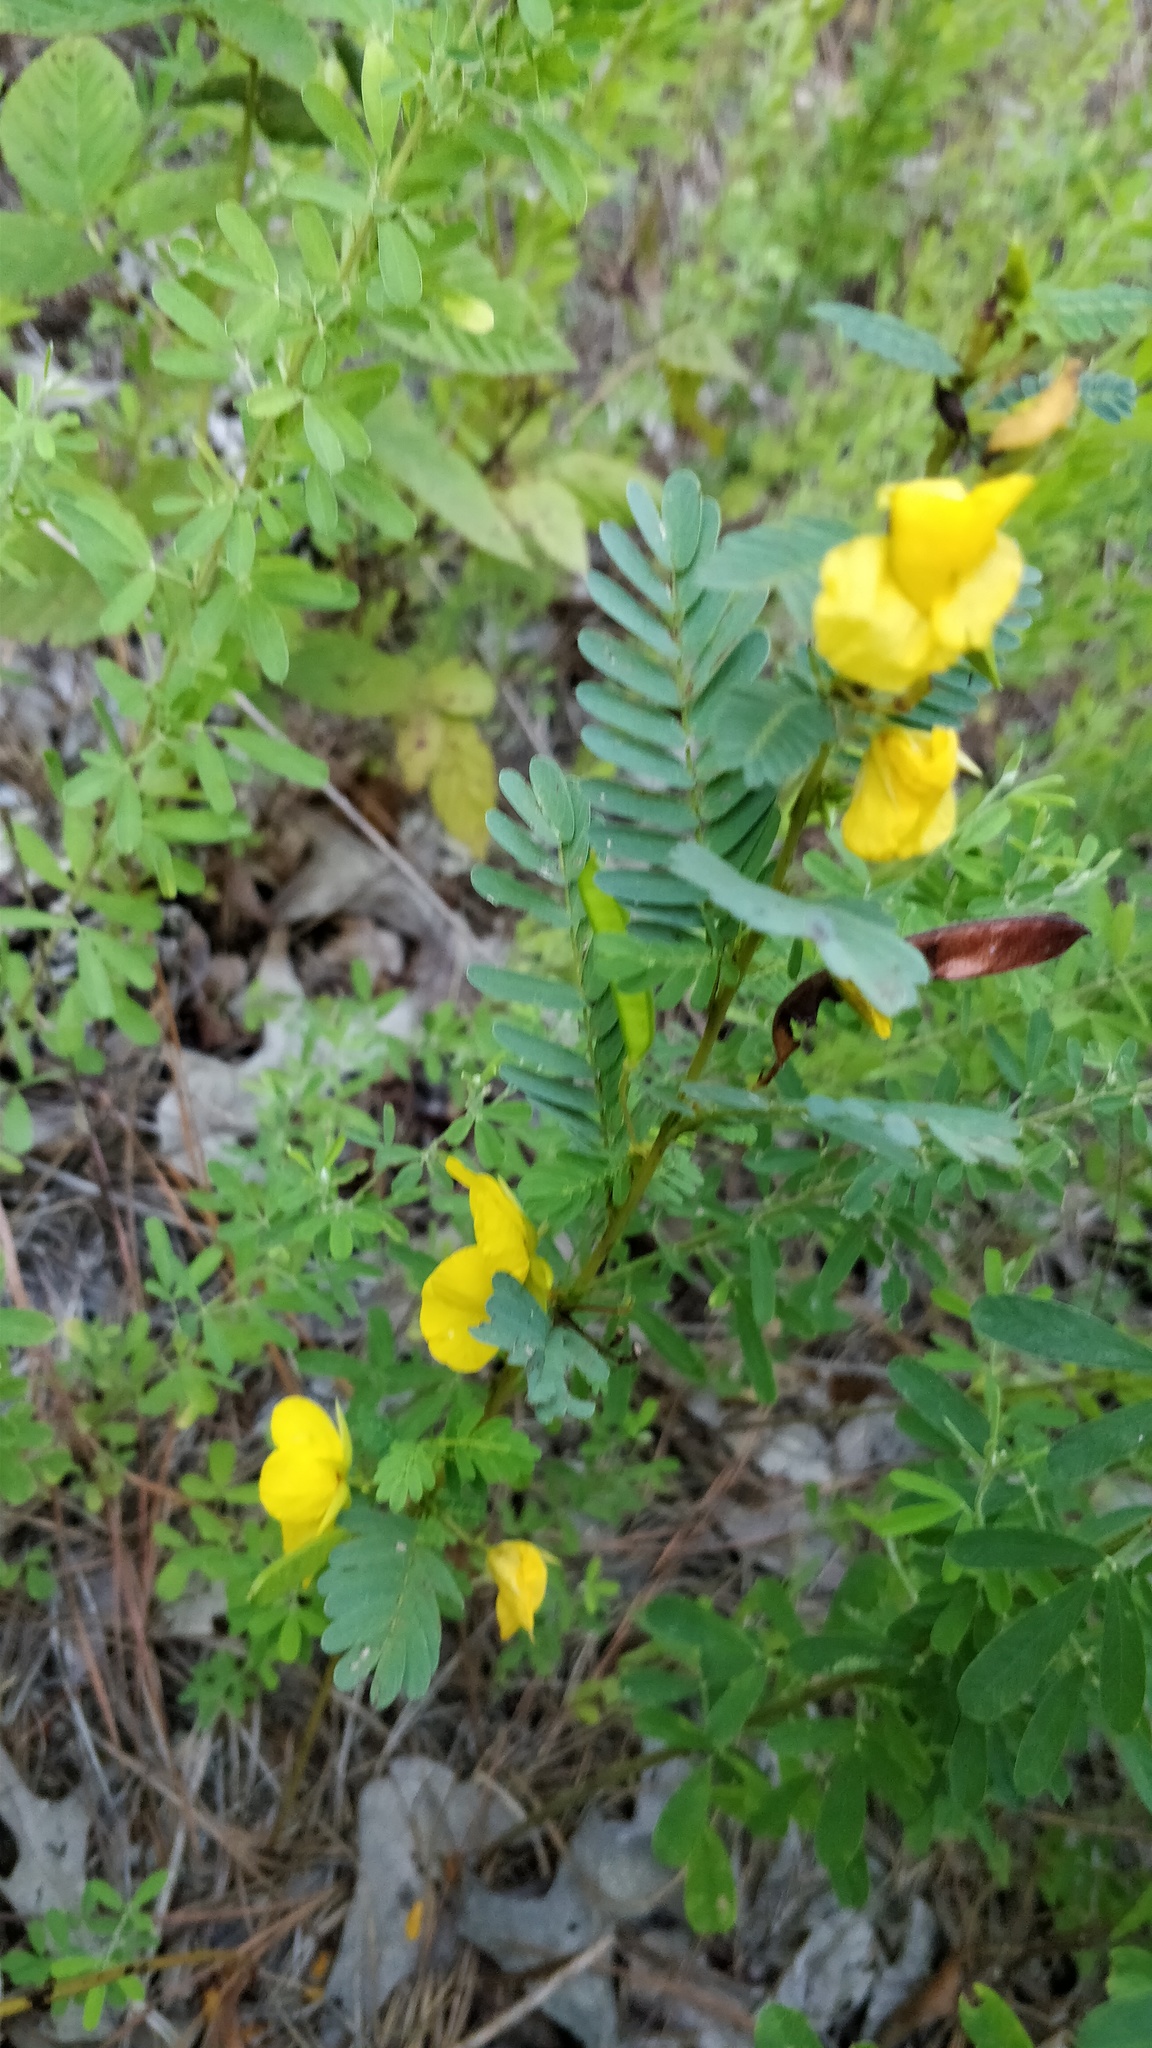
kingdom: Plantae
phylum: Tracheophyta
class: Magnoliopsida
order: Fabales
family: Fabaceae
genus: Chamaecrista
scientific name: Chamaecrista fasciculata
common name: Golden cassia
